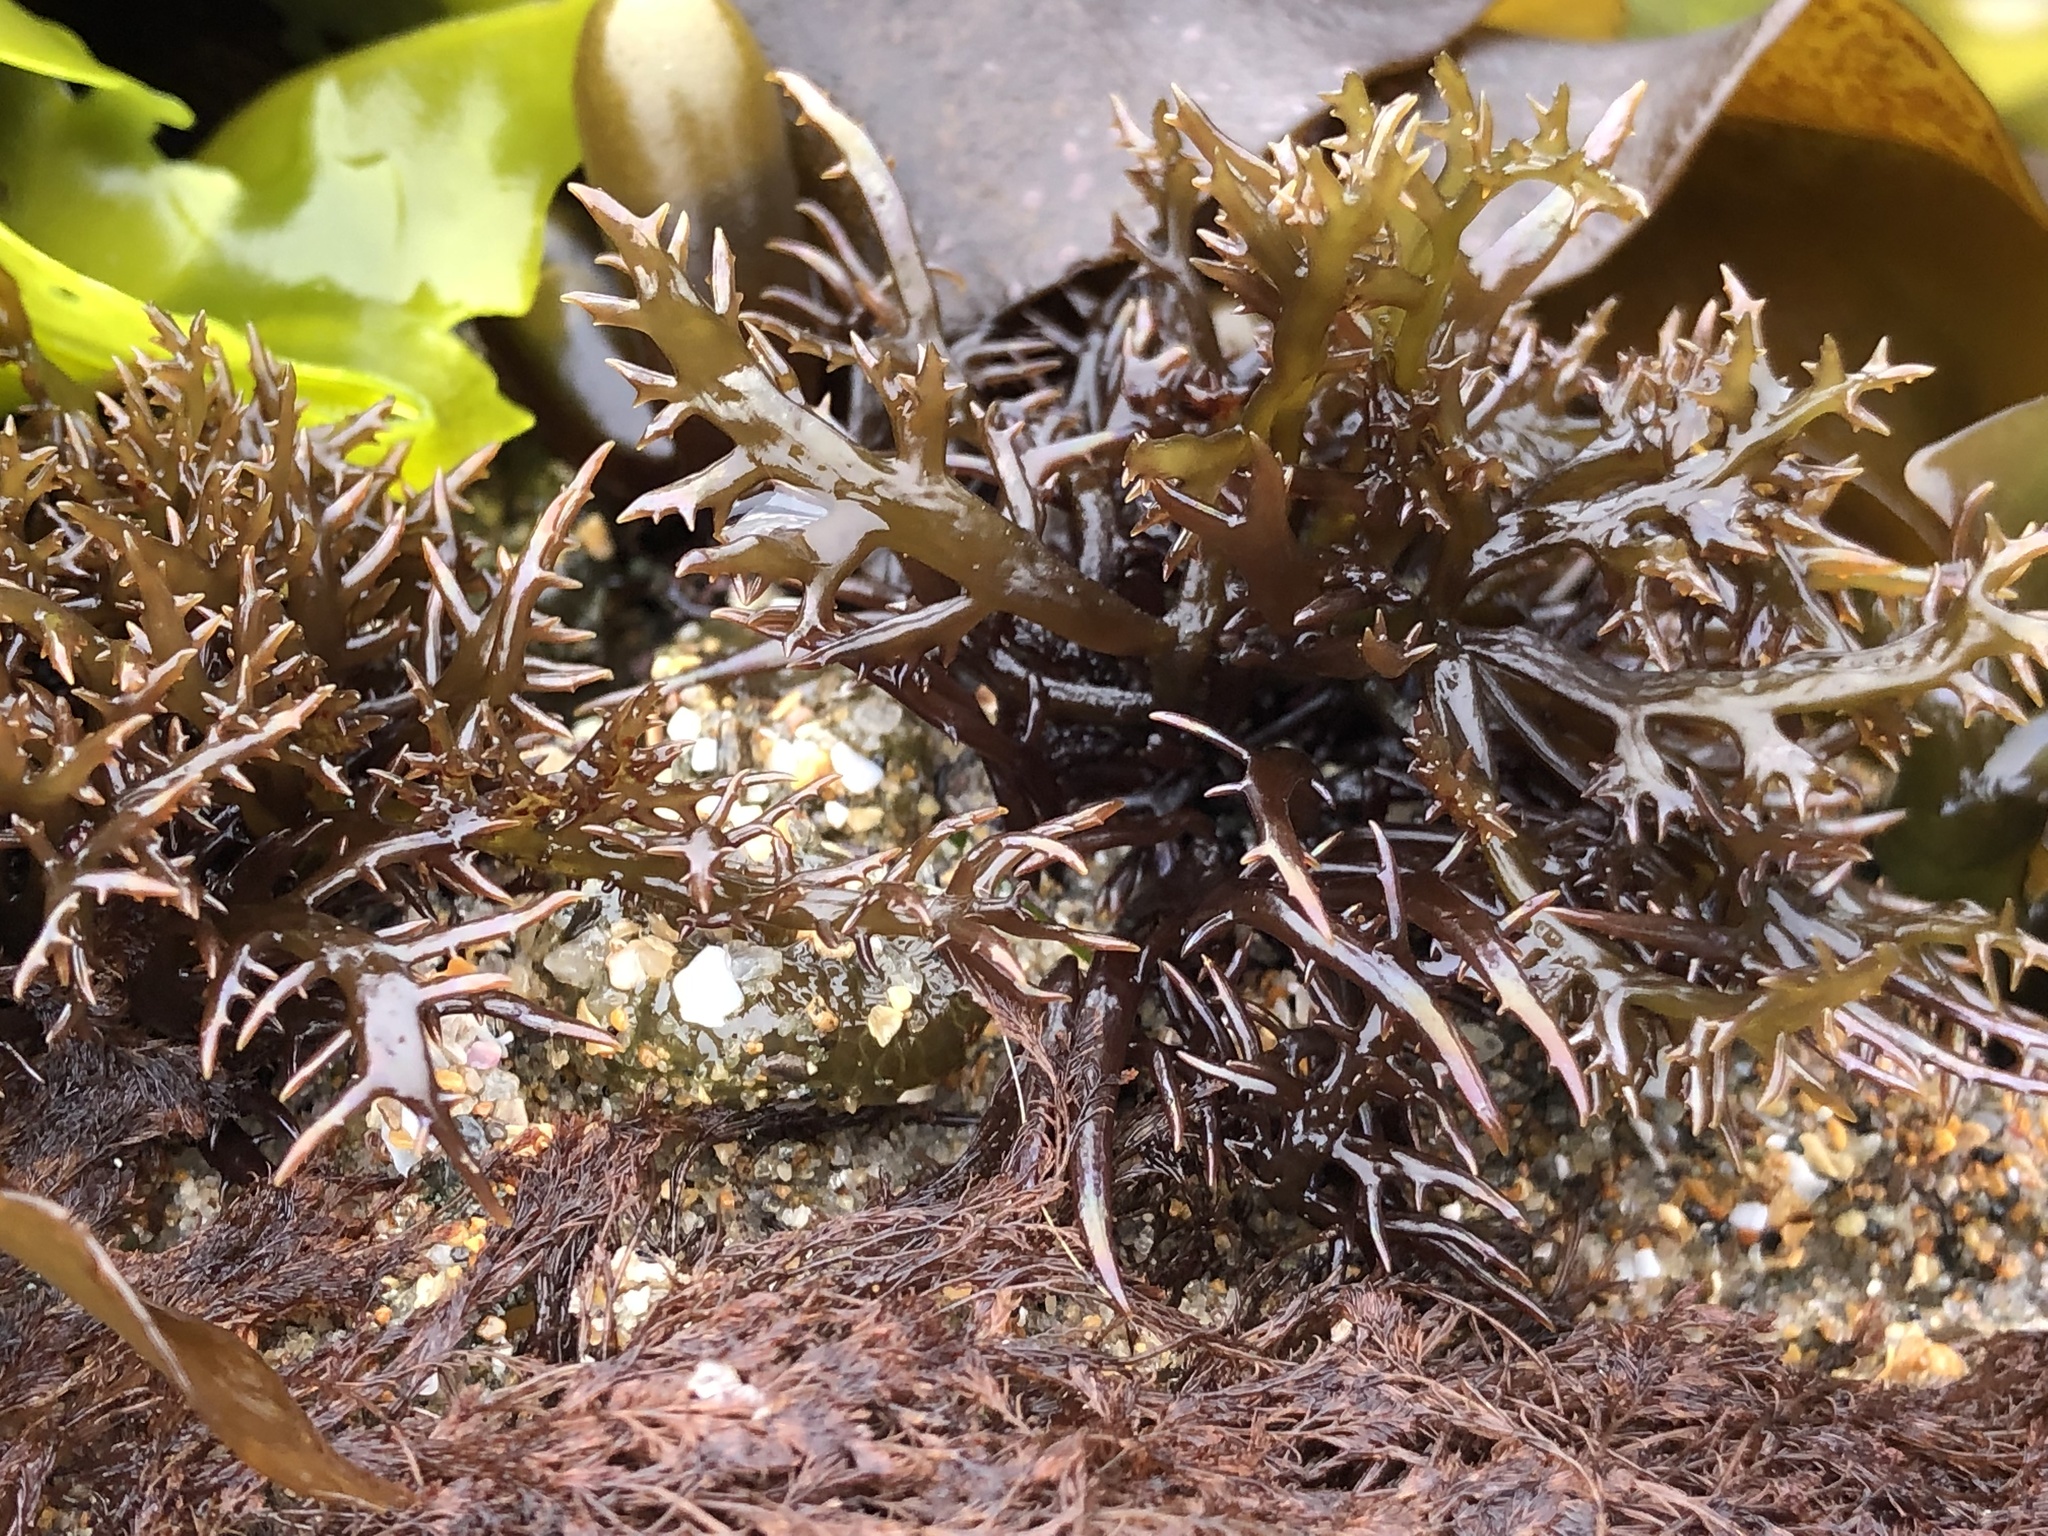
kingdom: Plantae
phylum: Rhodophyta
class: Florideophyceae
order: Gigartinales
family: Gigartinaceae
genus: Chondracanthus
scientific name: Chondracanthus canaliculatus
